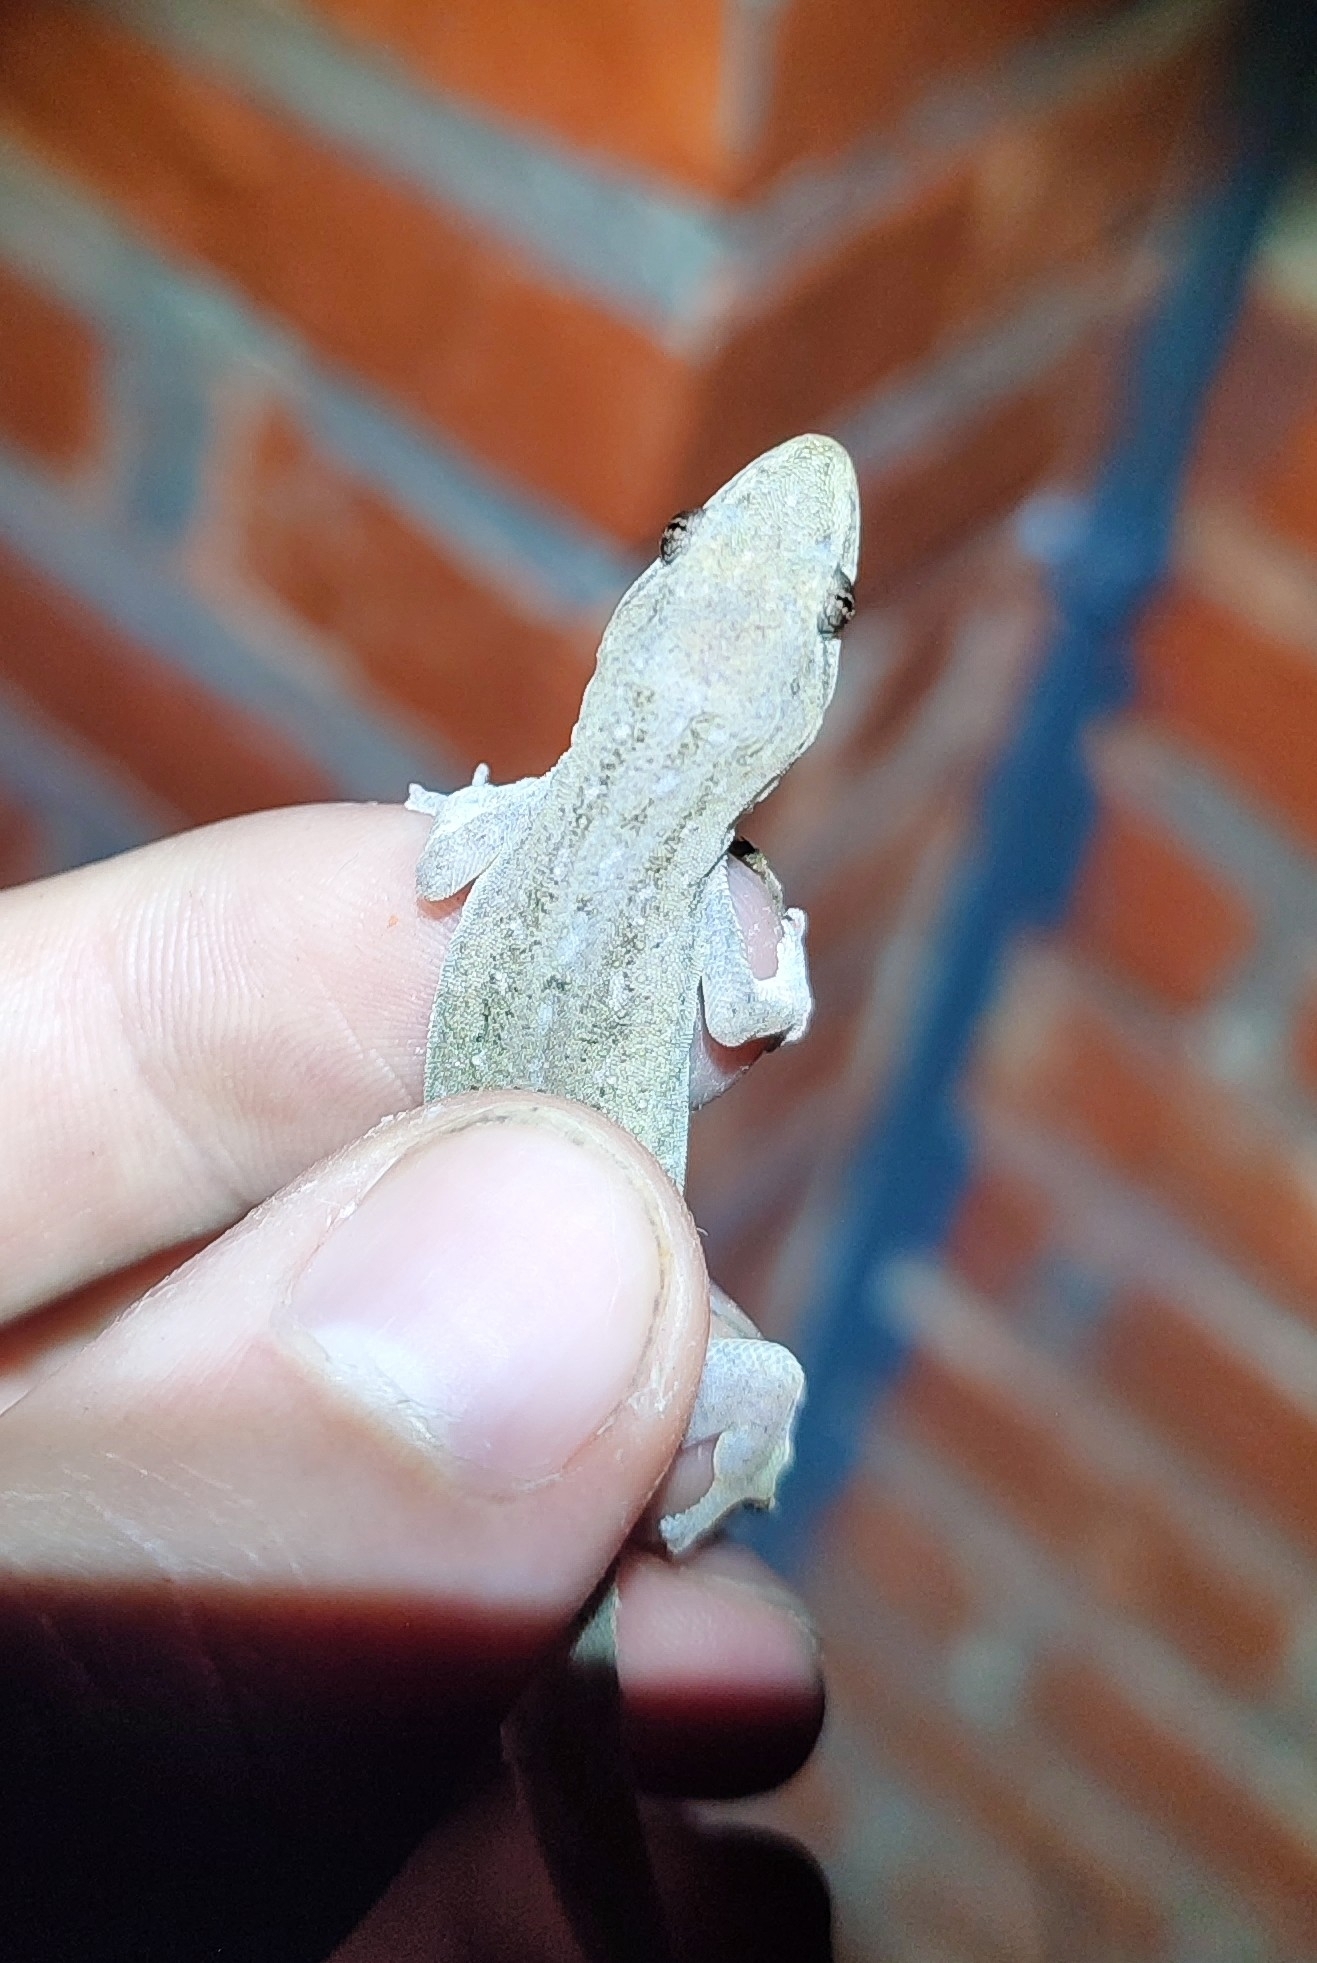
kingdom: Animalia
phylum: Chordata
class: Squamata
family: Gekkonidae
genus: Hemidactylus
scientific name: Hemidactylus frenatus
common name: Common house gecko
